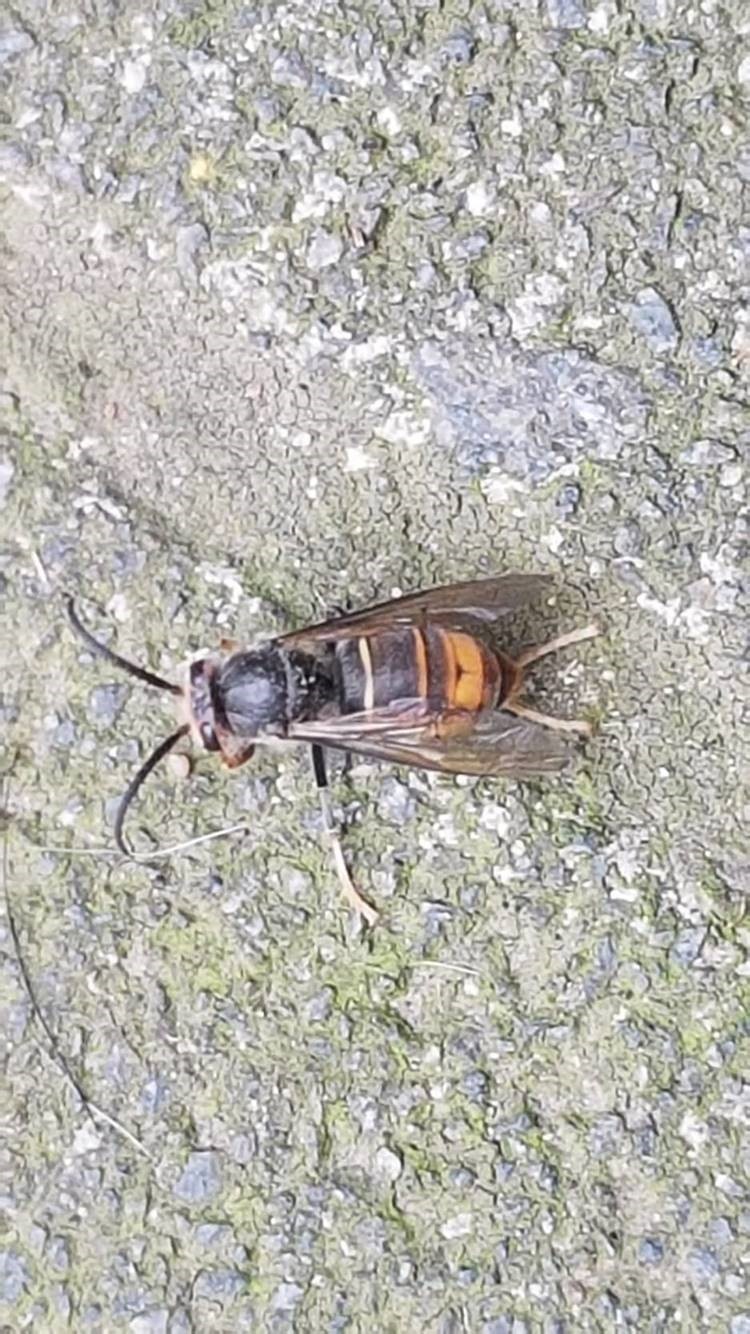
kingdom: Animalia
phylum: Arthropoda
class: Insecta
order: Hymenoptera
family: Vespidae
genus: Vespa
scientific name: Vespa velutina
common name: Asian hornet
